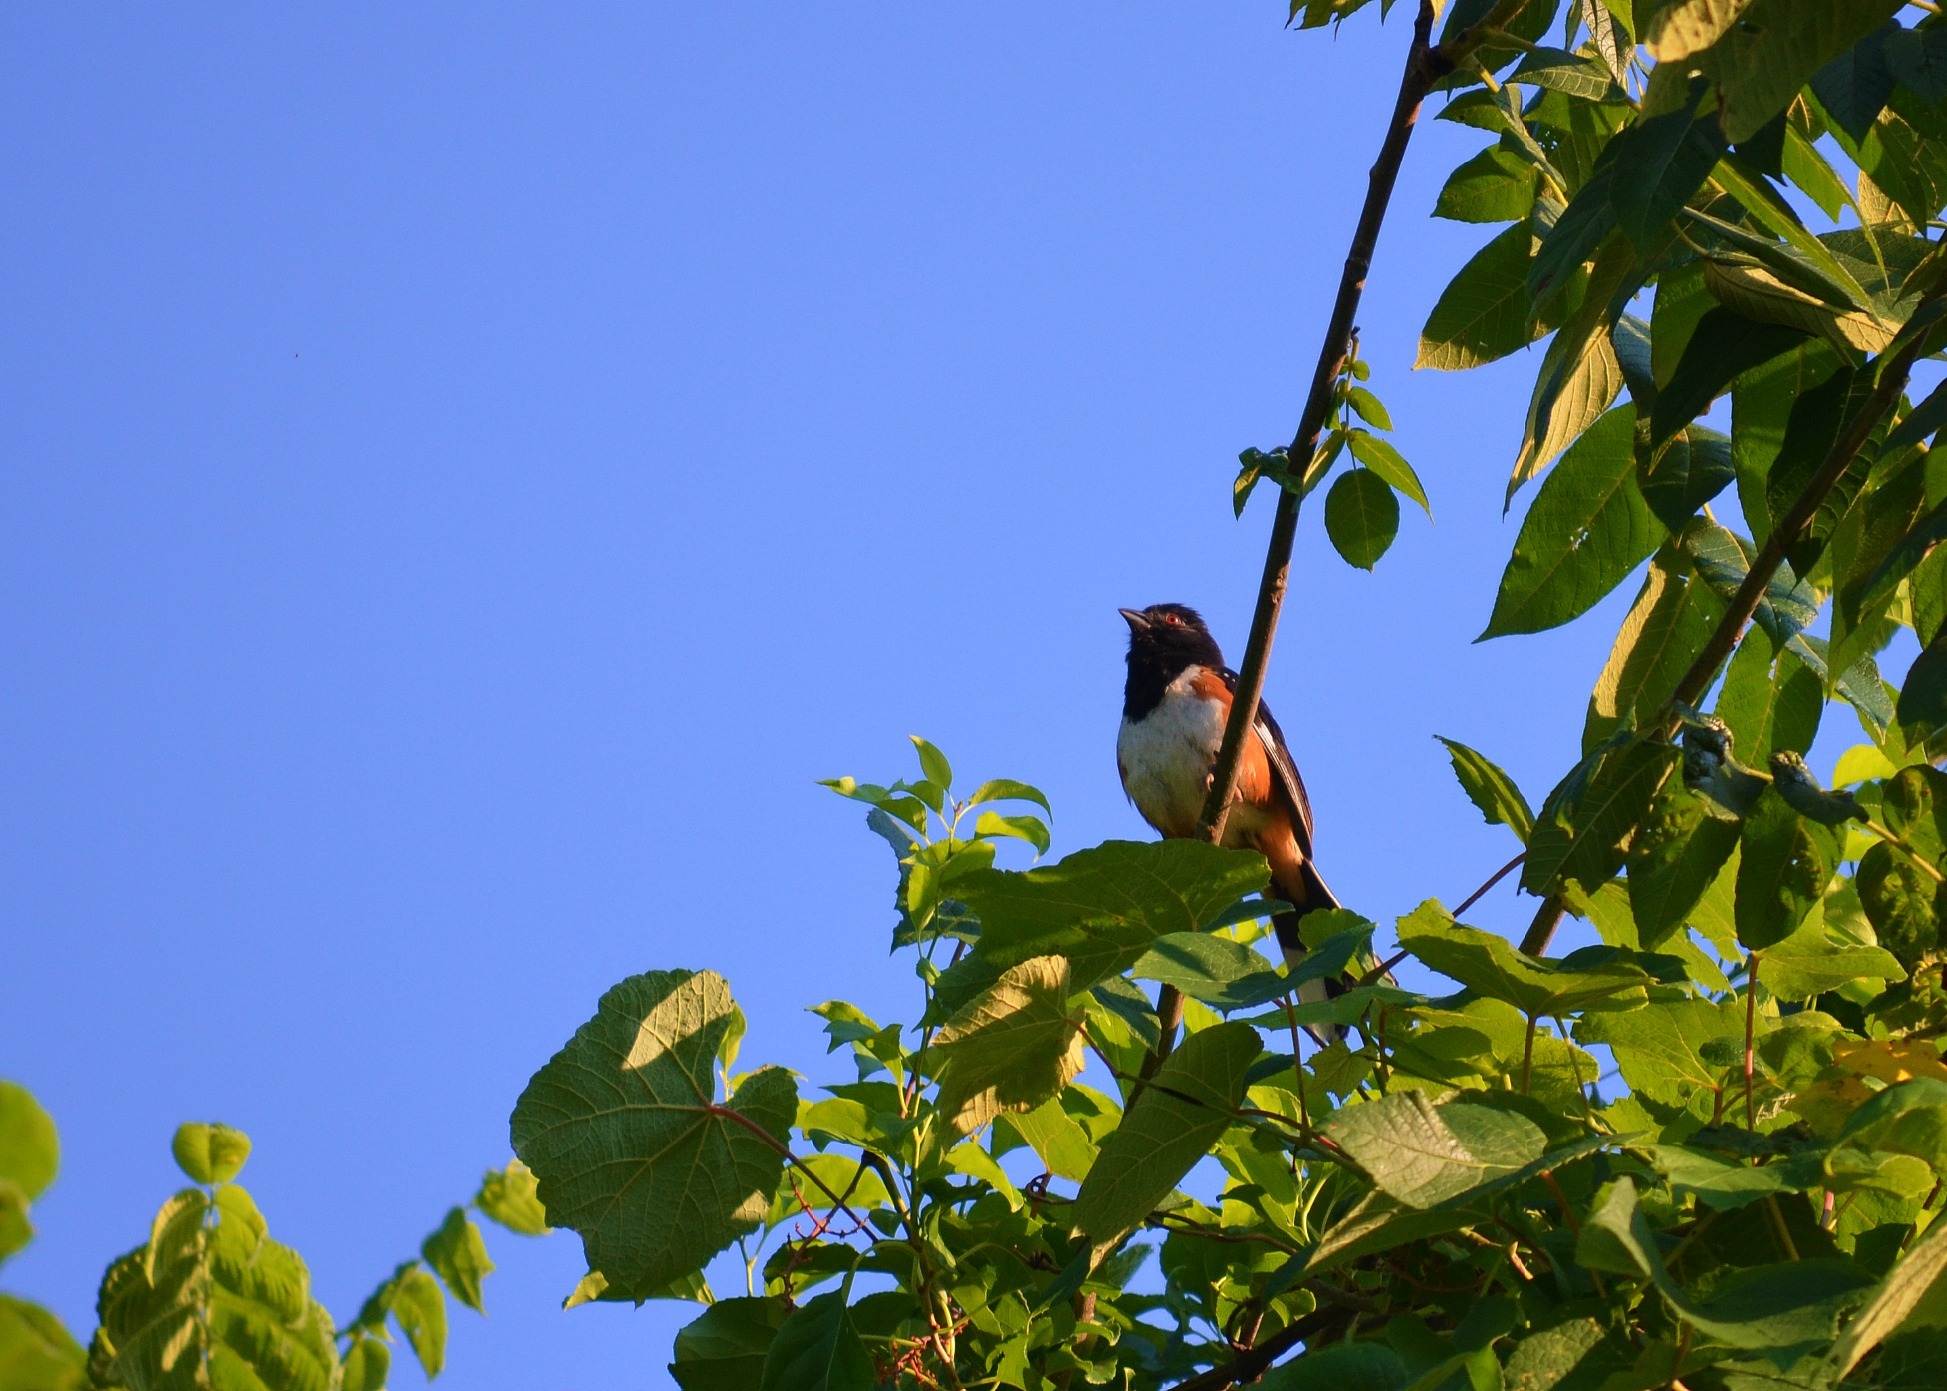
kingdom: Animalia
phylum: Chordata
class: Aves
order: Passeriformes
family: Passerellidae
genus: Pipilo
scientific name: Pipilo erythrophthalmus
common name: Eastern towhee
